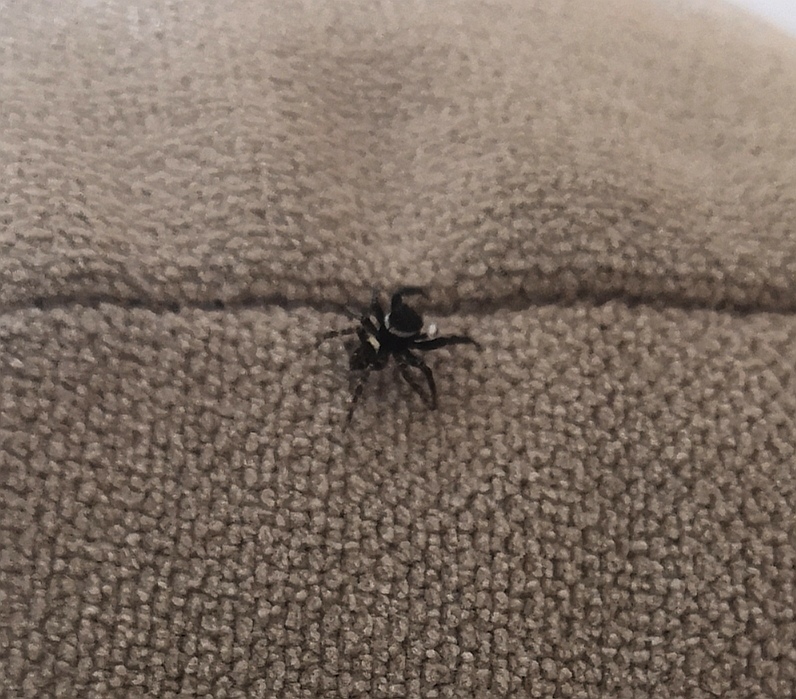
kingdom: Animalia
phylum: Arthropoda
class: Arachnida
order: Araneae
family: Salticidae
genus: Hasarius
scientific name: Hasarius adansoni
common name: Jumping spider
